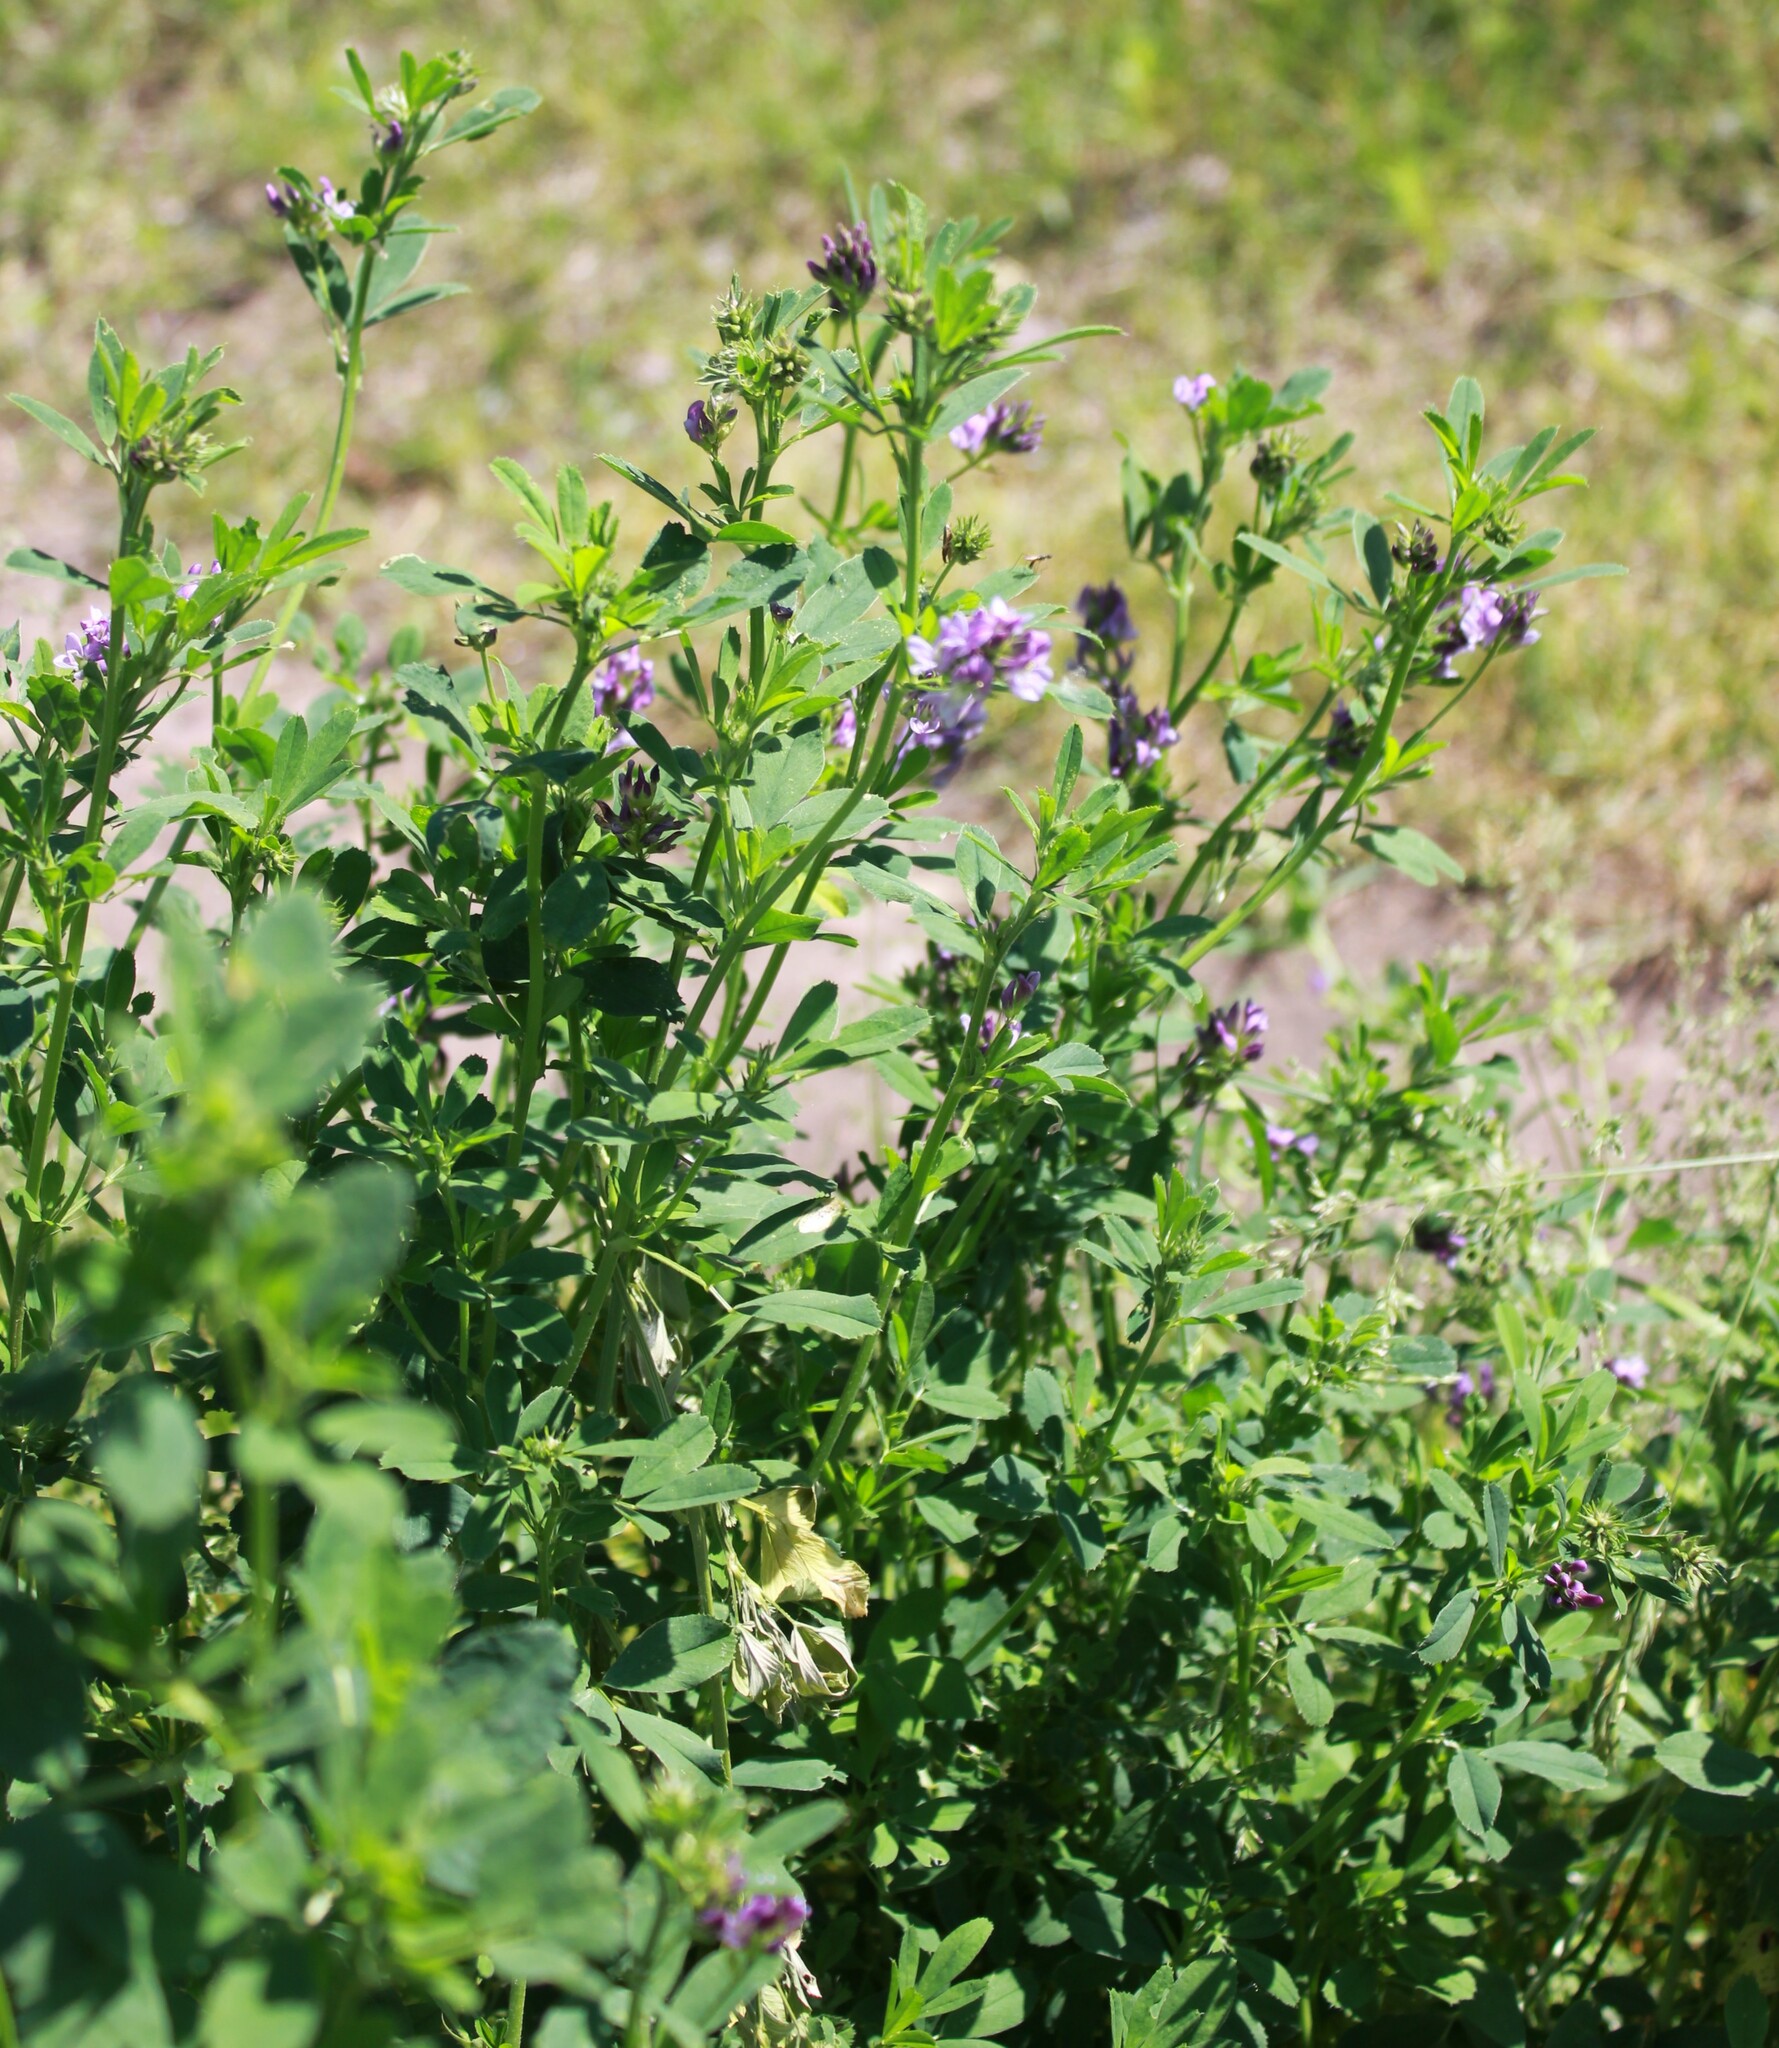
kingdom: Plantae
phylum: Tracheophyta
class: Magnoliopsida
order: Fabales
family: Fabaceae
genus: Medicago
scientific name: Medicago sativa
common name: Alfalfa
